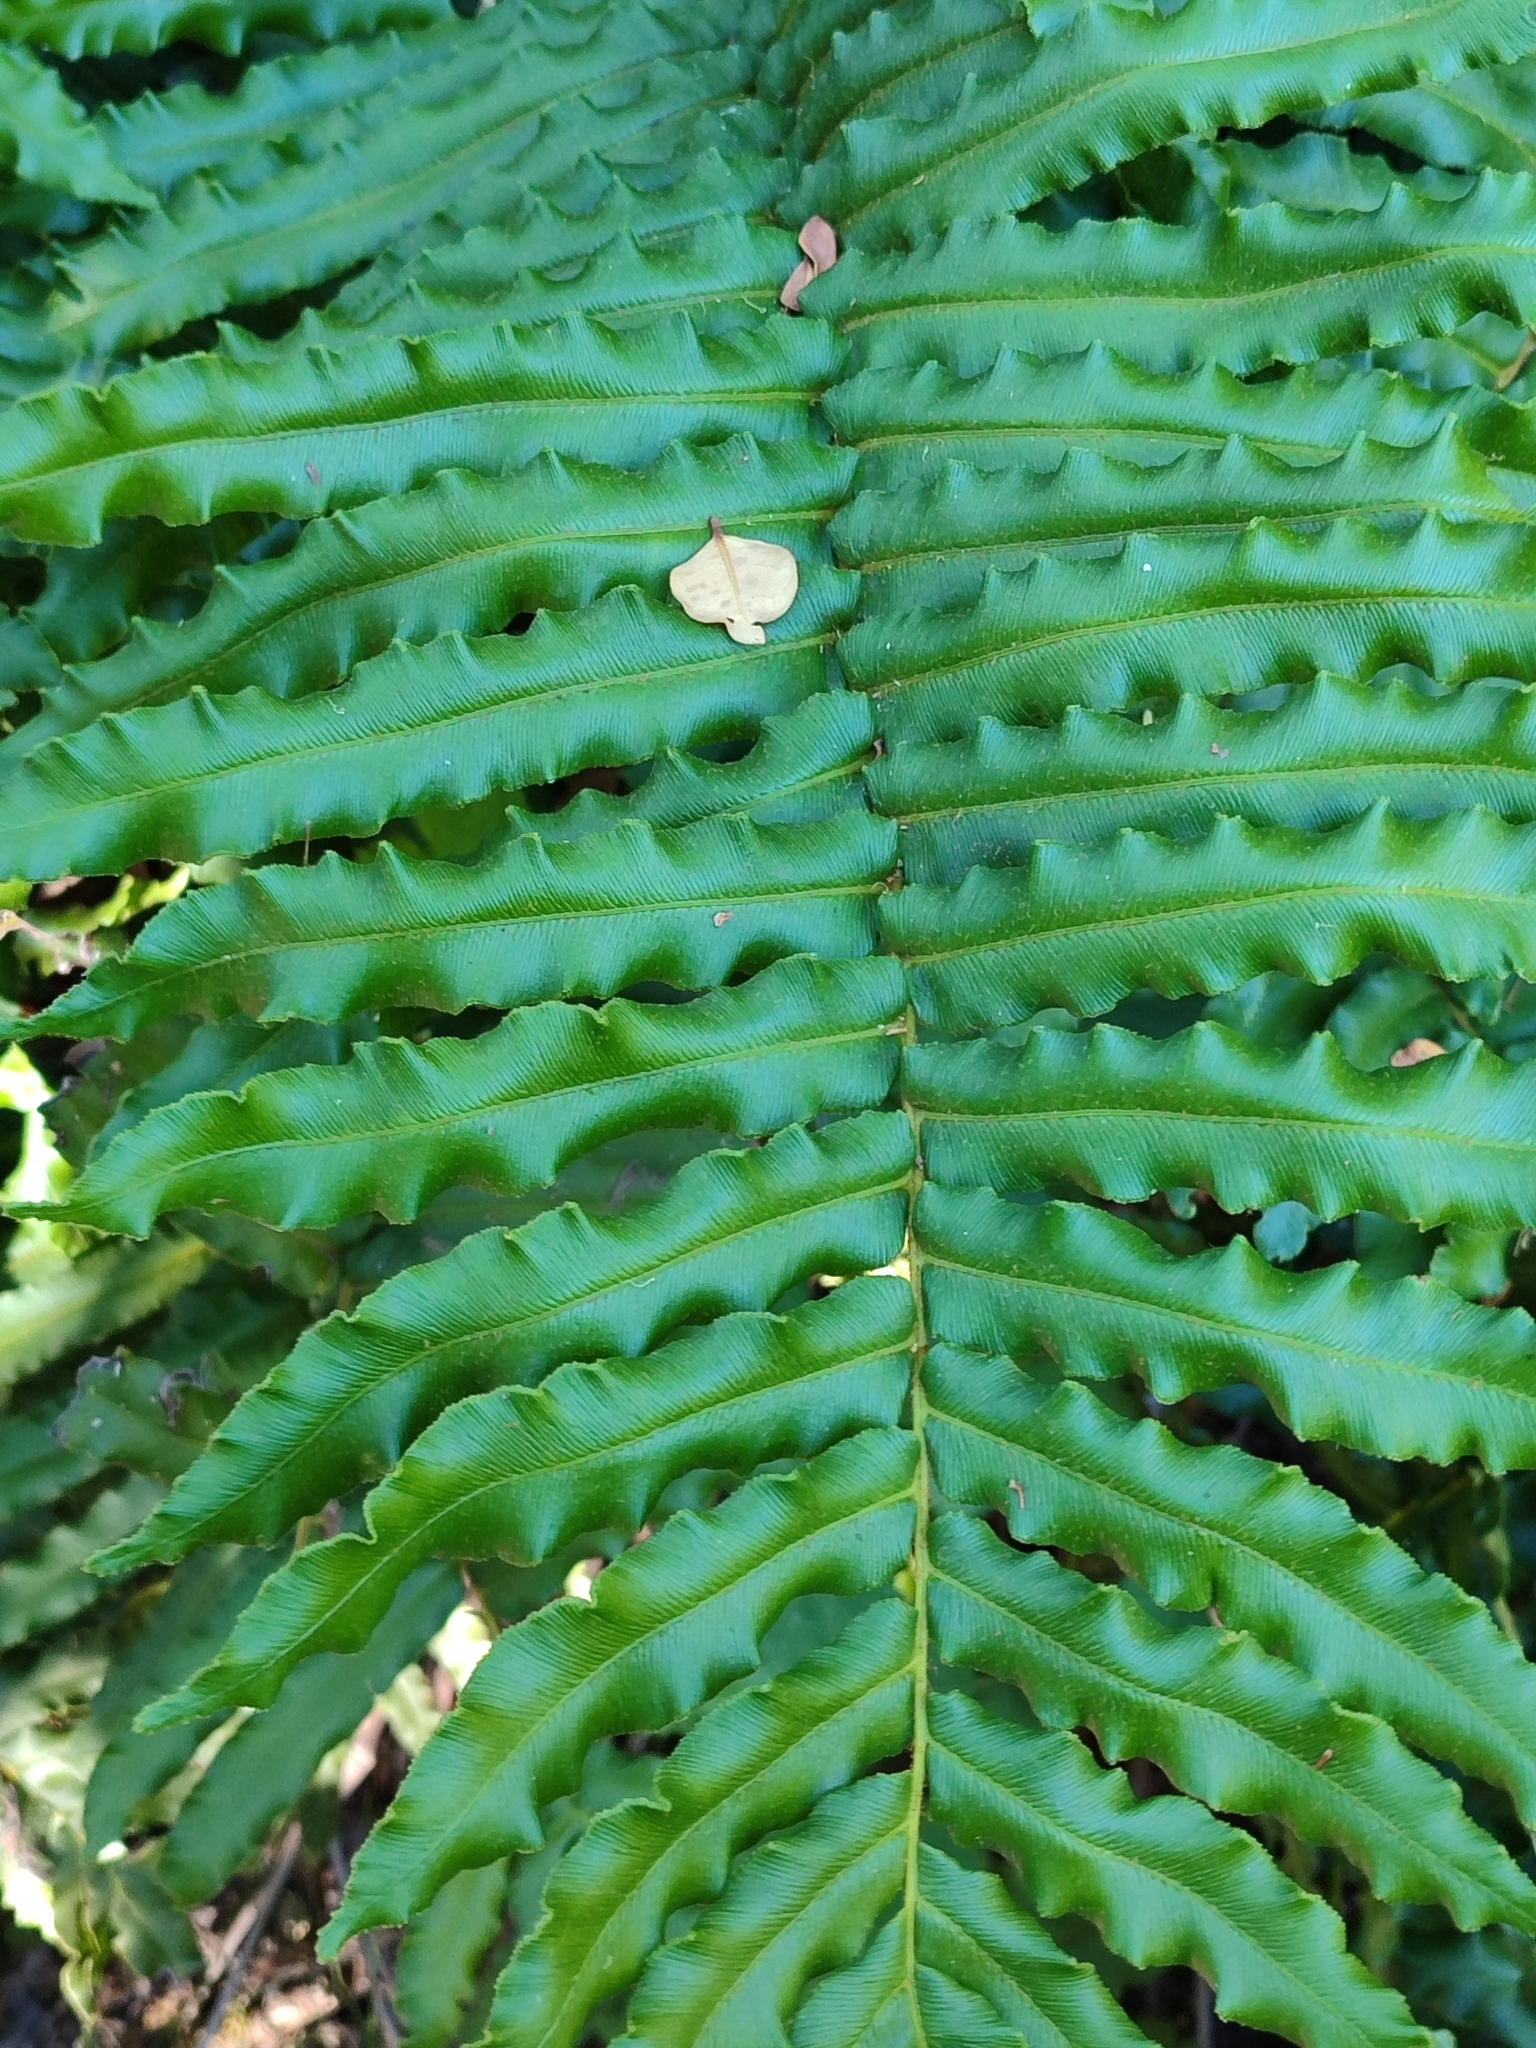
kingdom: Plantae
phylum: Tracheophyta
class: Polypodiopsida
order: Polypodiales
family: Blechnaceae
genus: Parablechnum
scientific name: Parablechnum chilense
